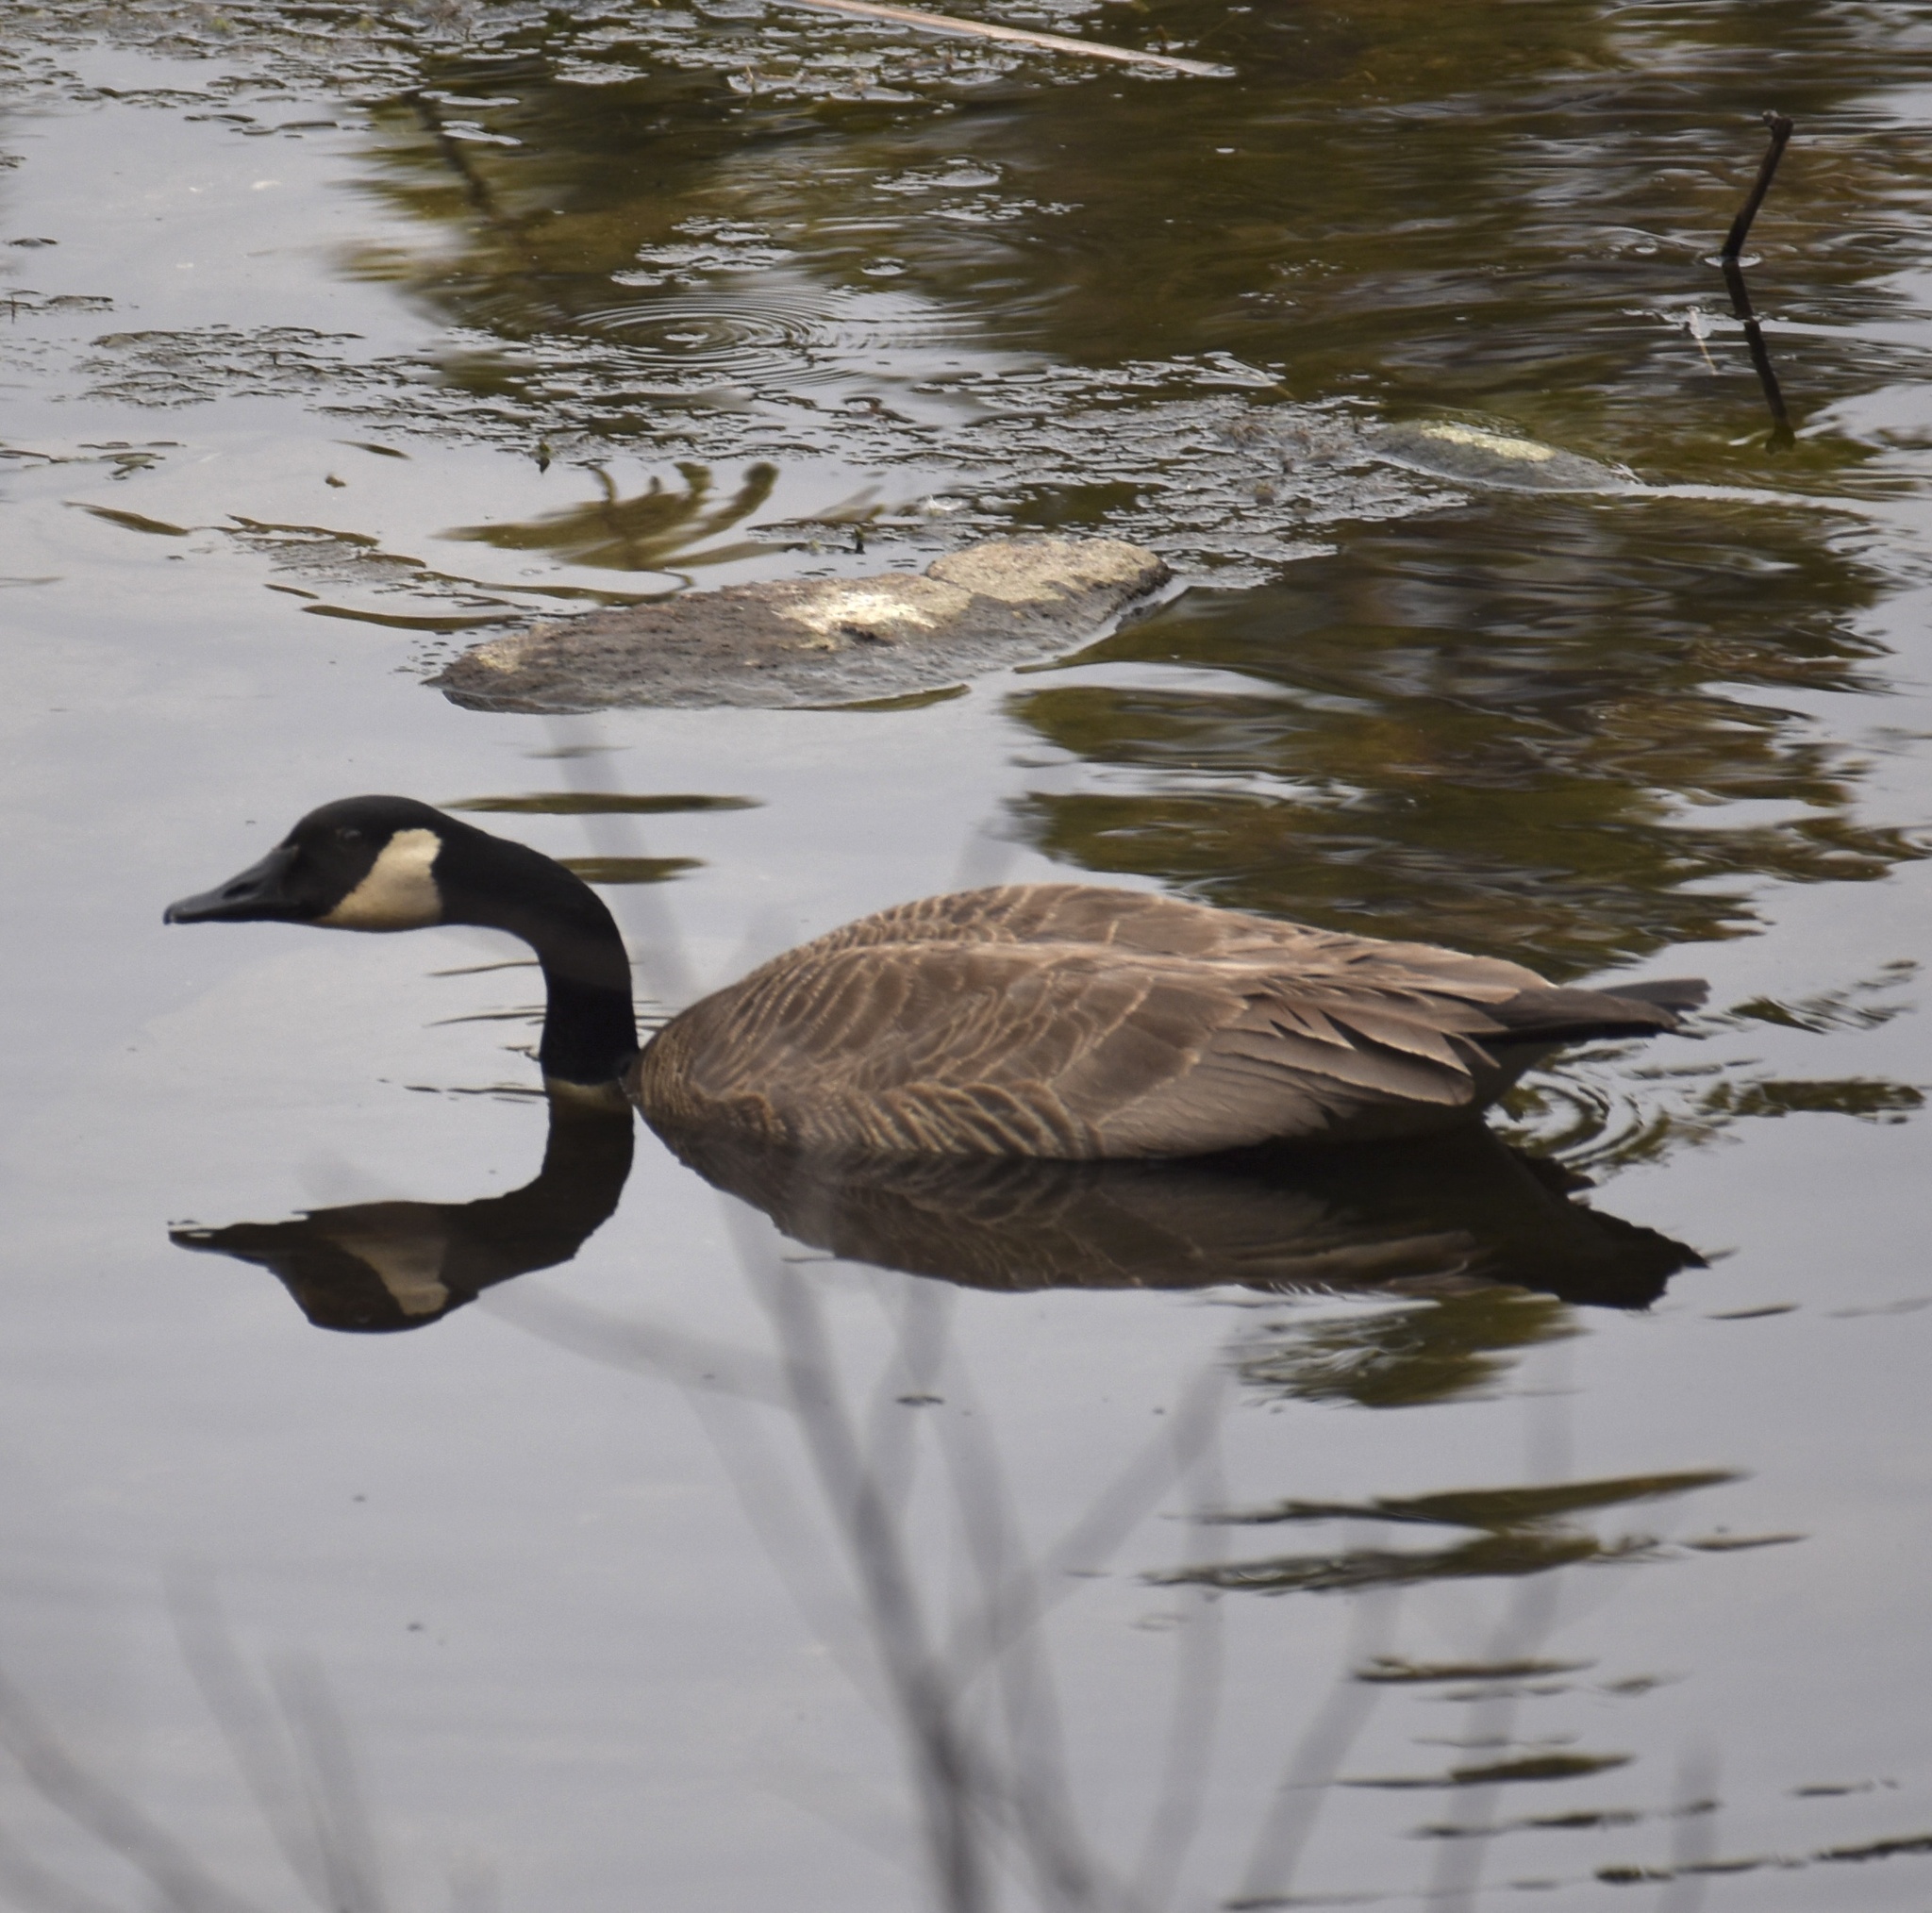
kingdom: Animalia
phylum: Chordata
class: Aves
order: Anseriformes
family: Anatidae
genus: Branta
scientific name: Branta canadensis
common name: Canada goose
